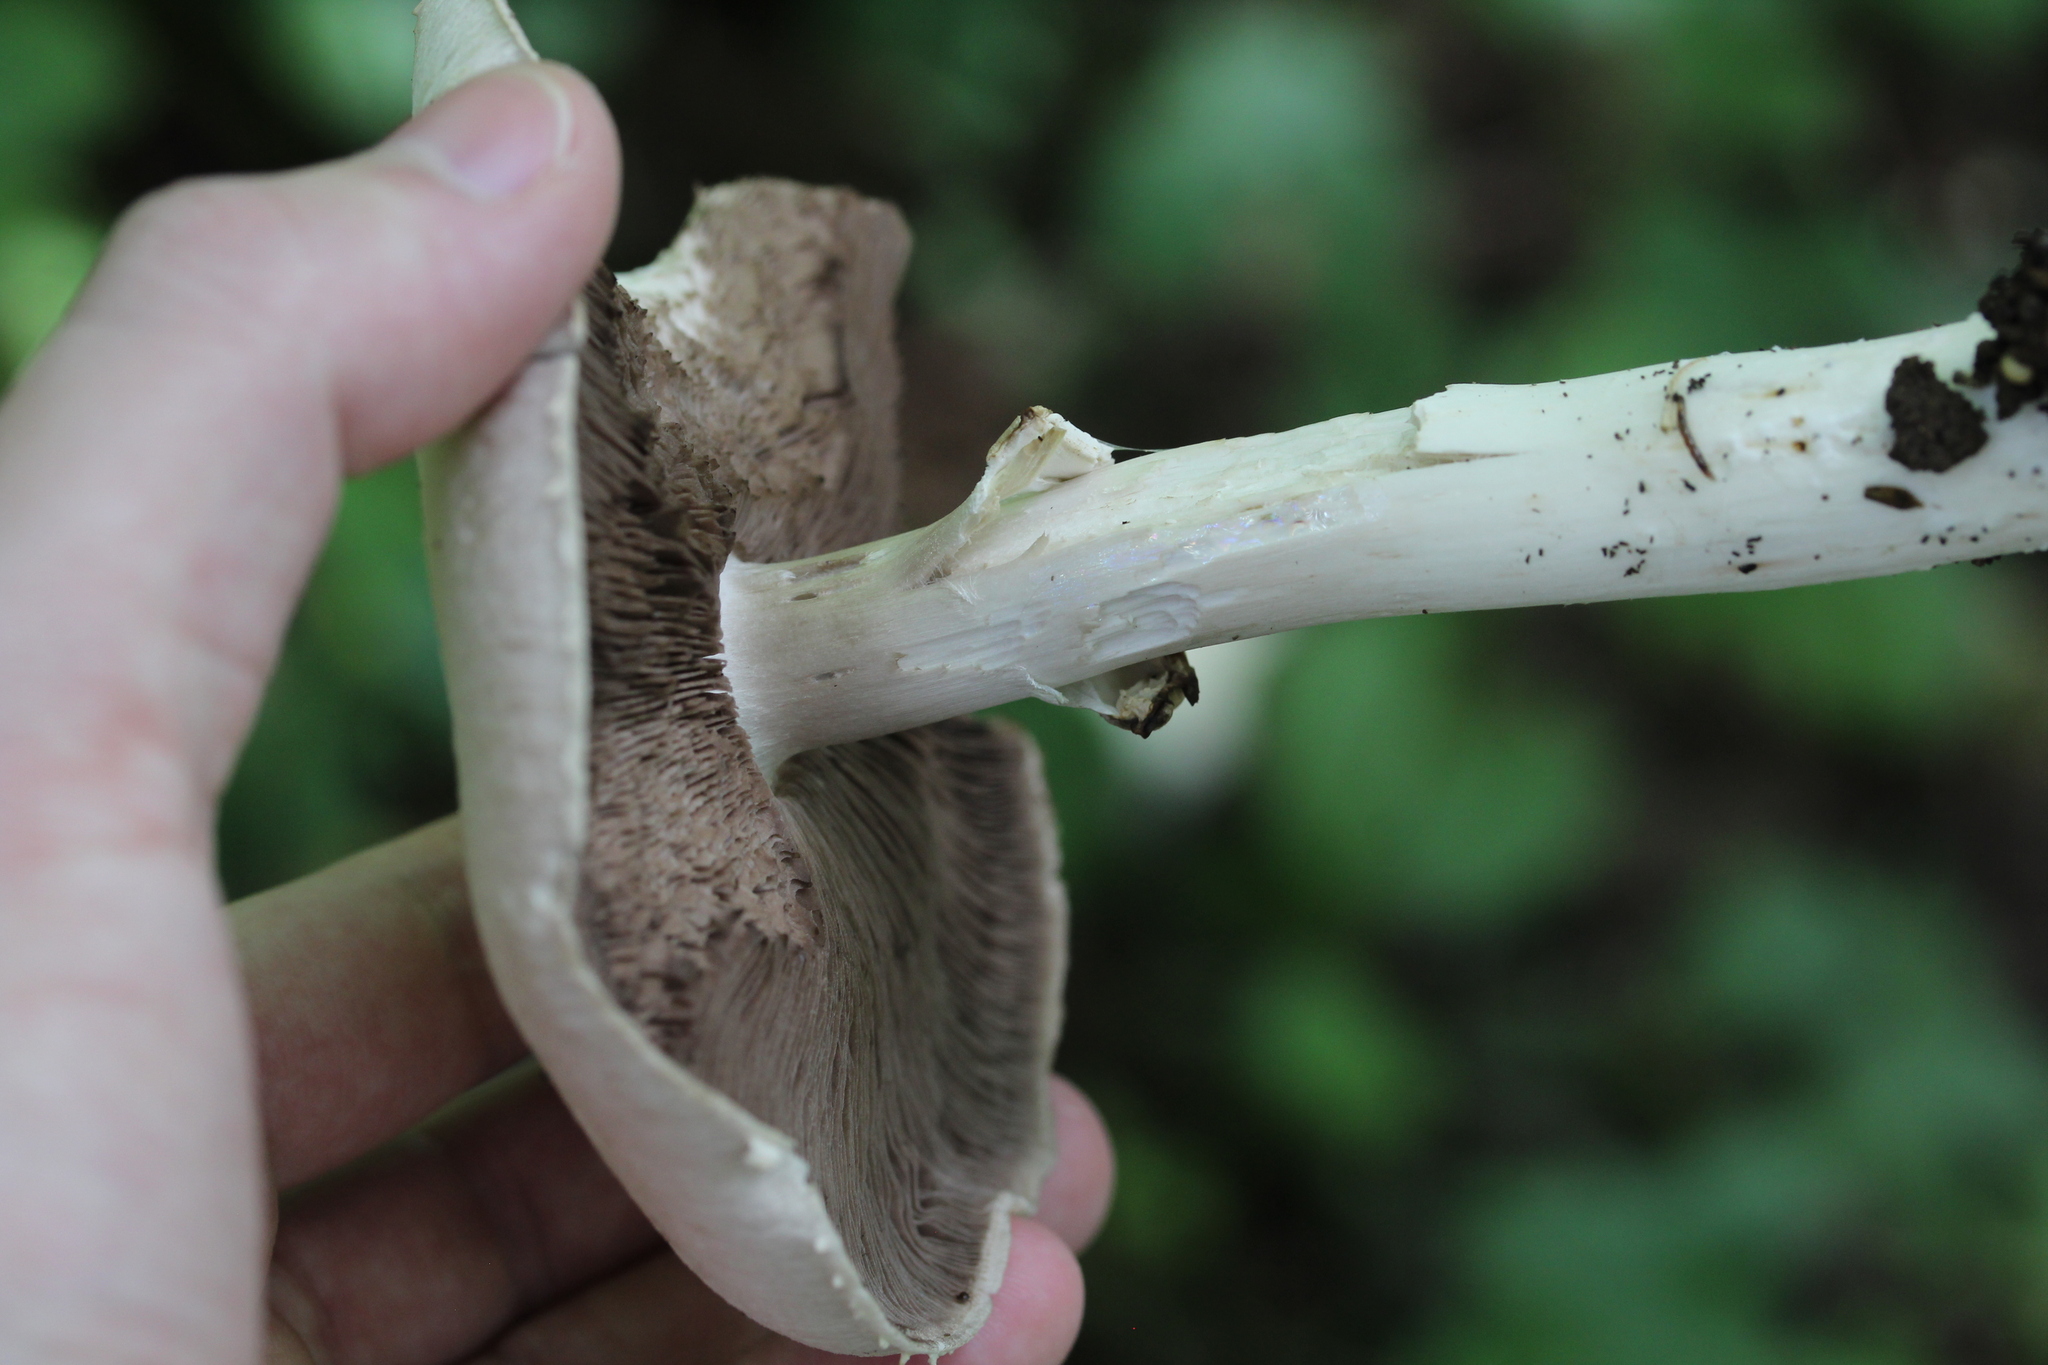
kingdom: Fungi
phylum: Basidiomycota
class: Agaricomycetes
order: Agaricales
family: Agaricaceae
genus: Agaricus
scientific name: Agaricus
